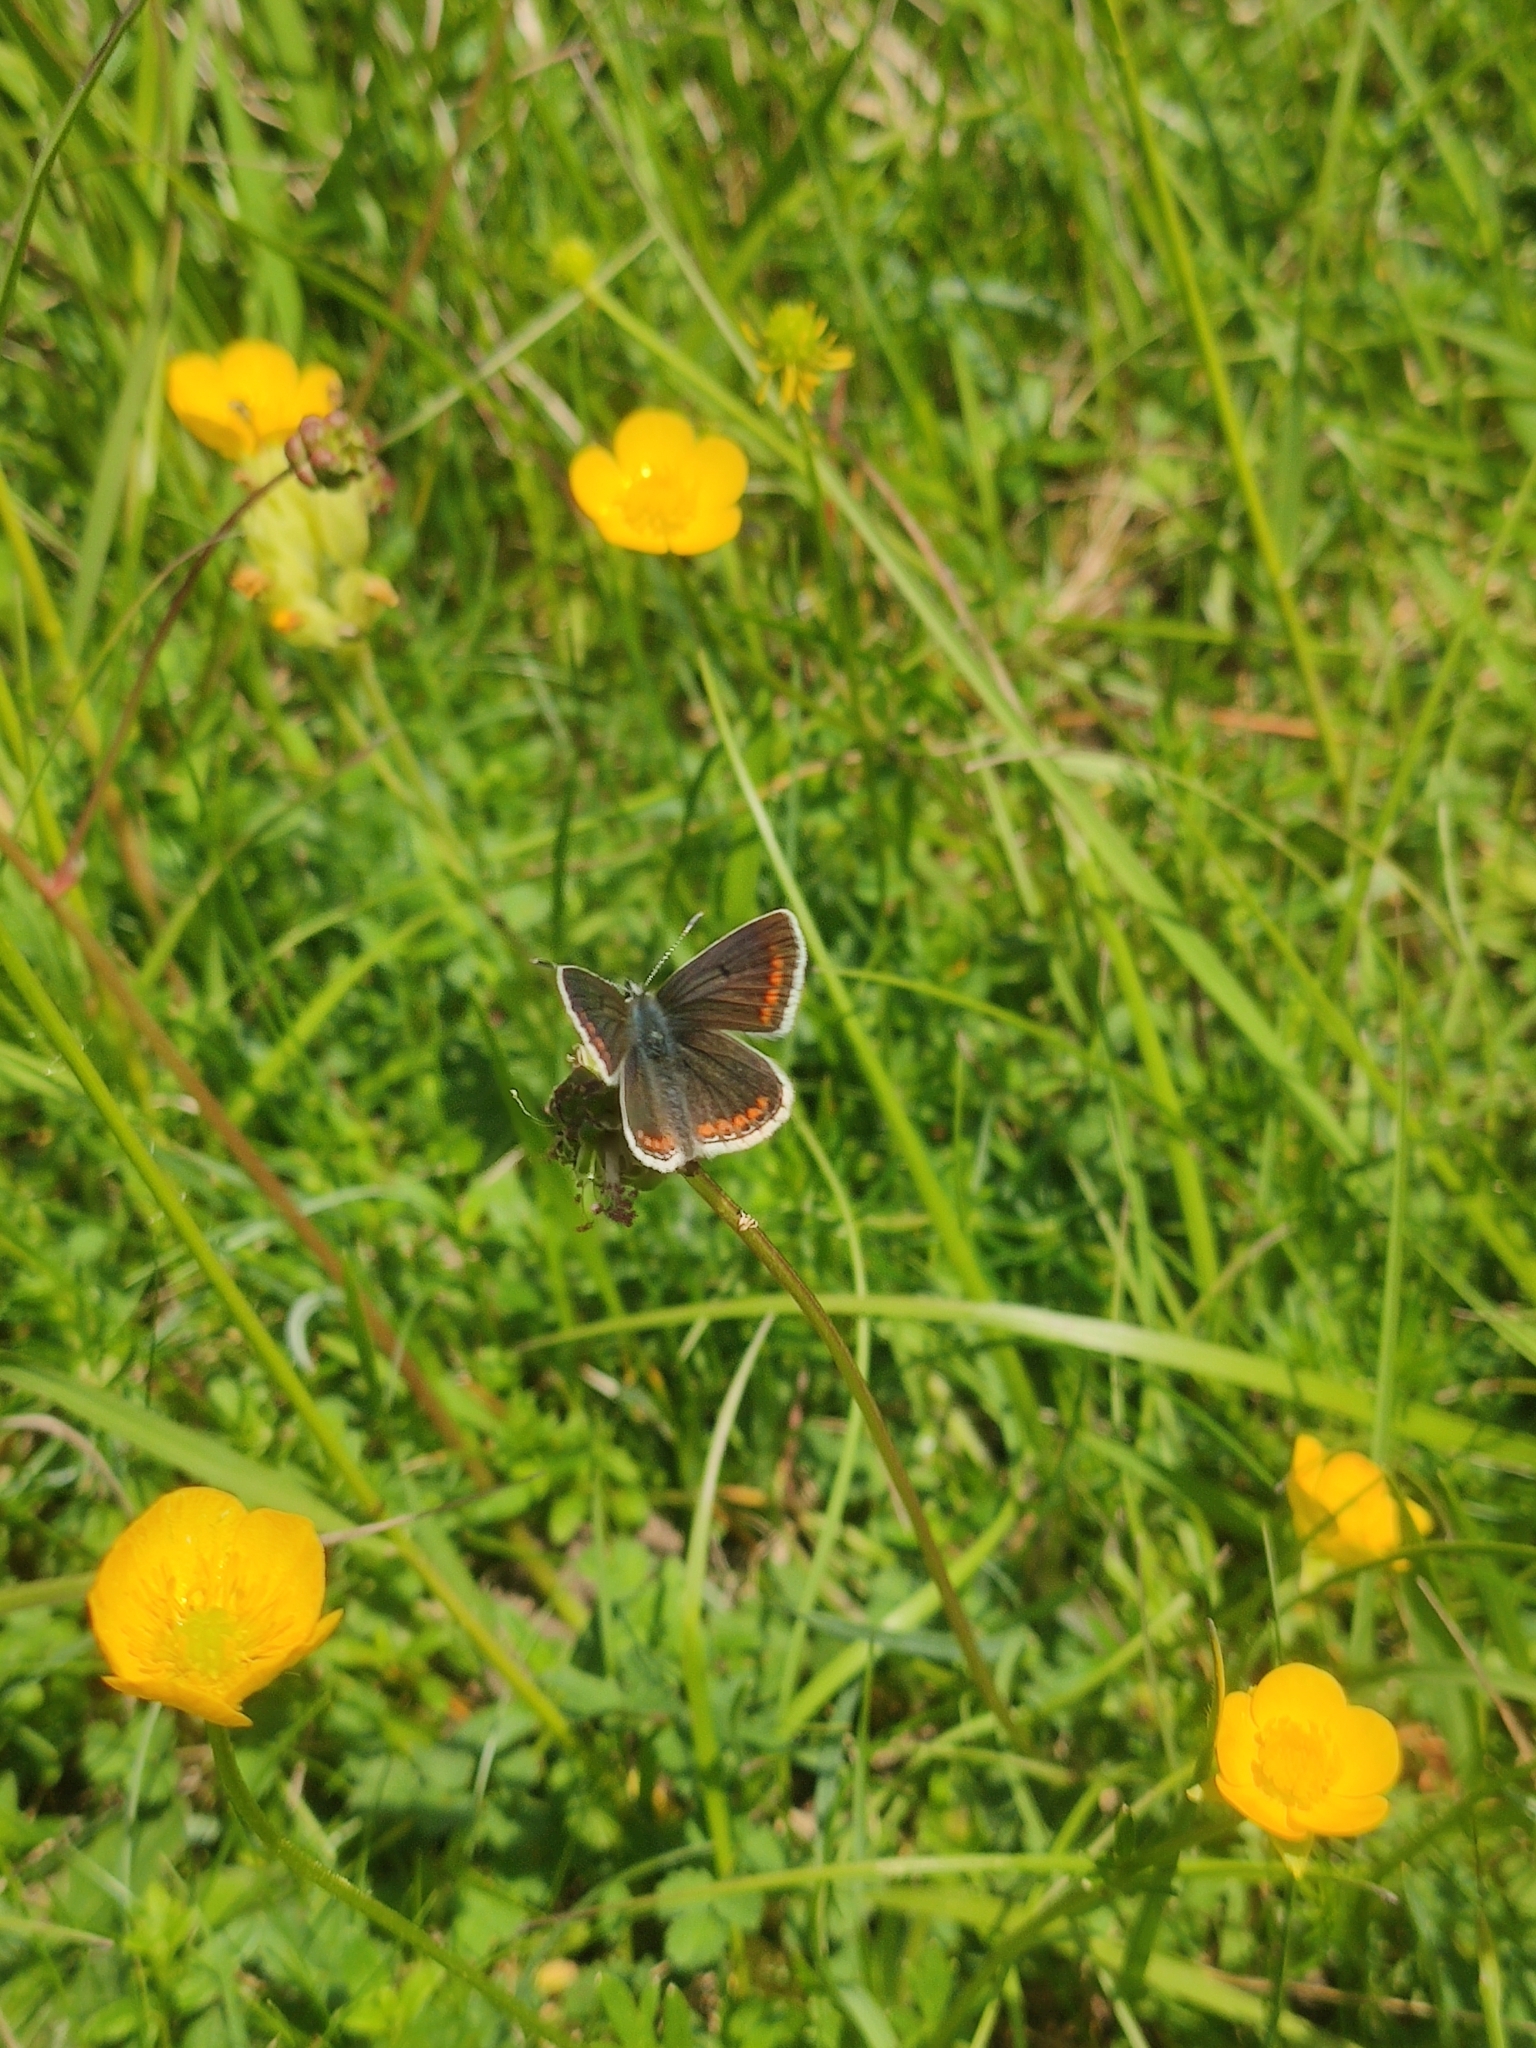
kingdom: Animalia
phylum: Arthropoda
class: Insecta
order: Lepidoptera
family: Lycaenidae
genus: Aricia
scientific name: Aricia agestis
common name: Brown argus
